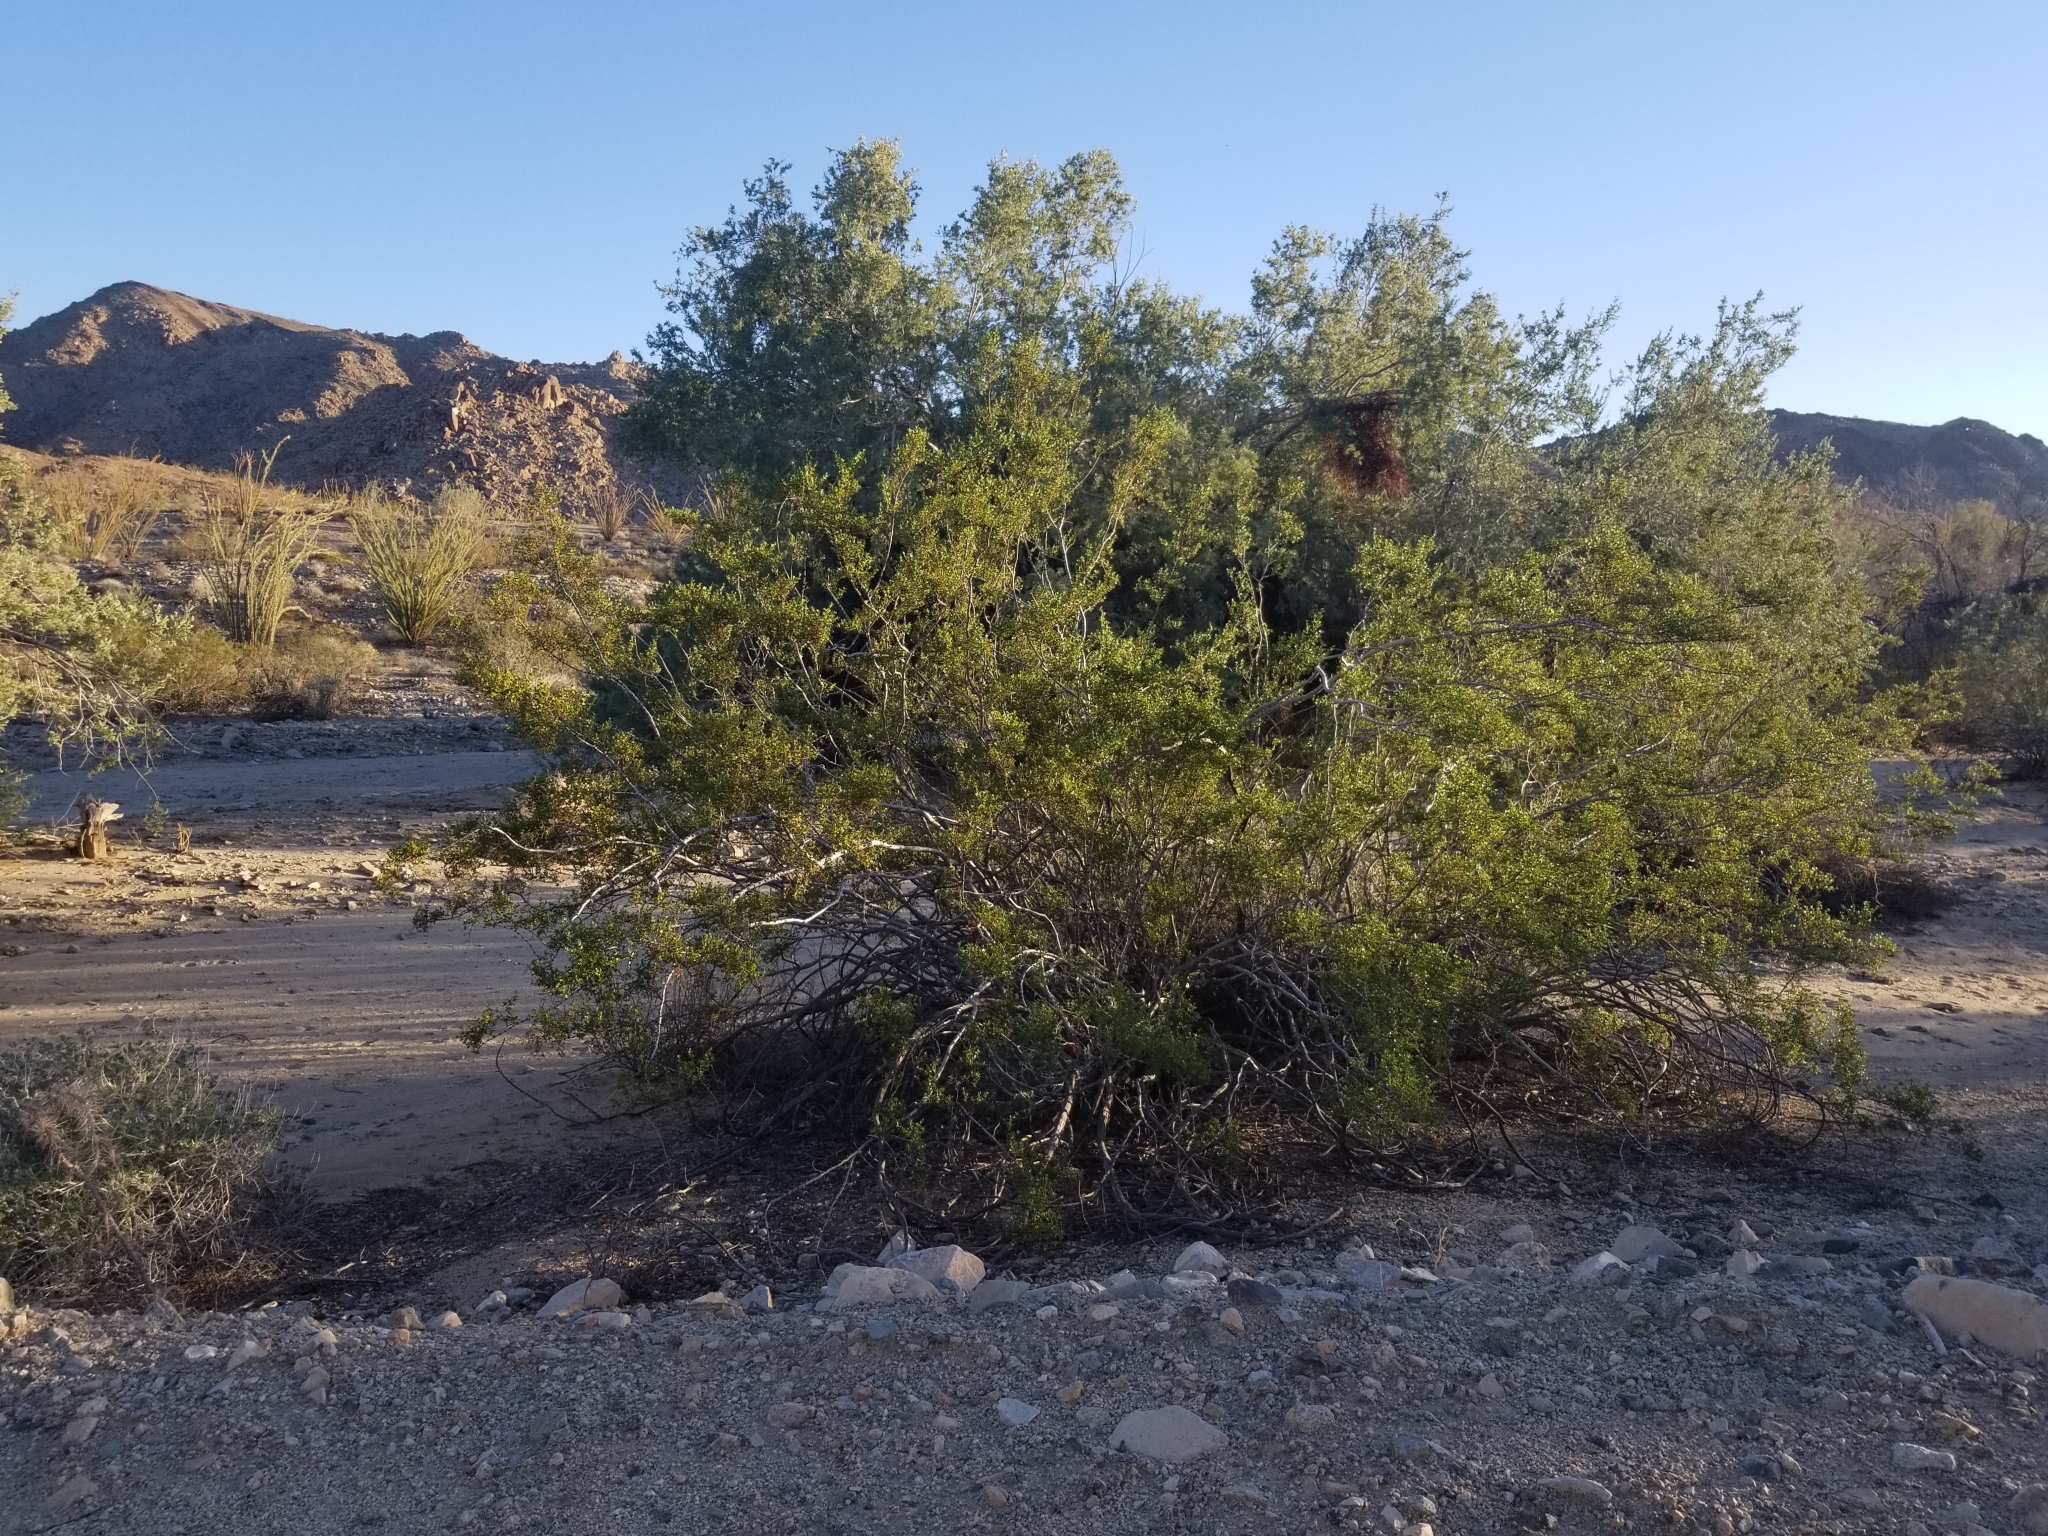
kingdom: Plantae
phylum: Tracheophyta
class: Magnoliopsida
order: Zygophyllales
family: Zygophyllaceae
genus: Larrea
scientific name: Larrea tridentata
